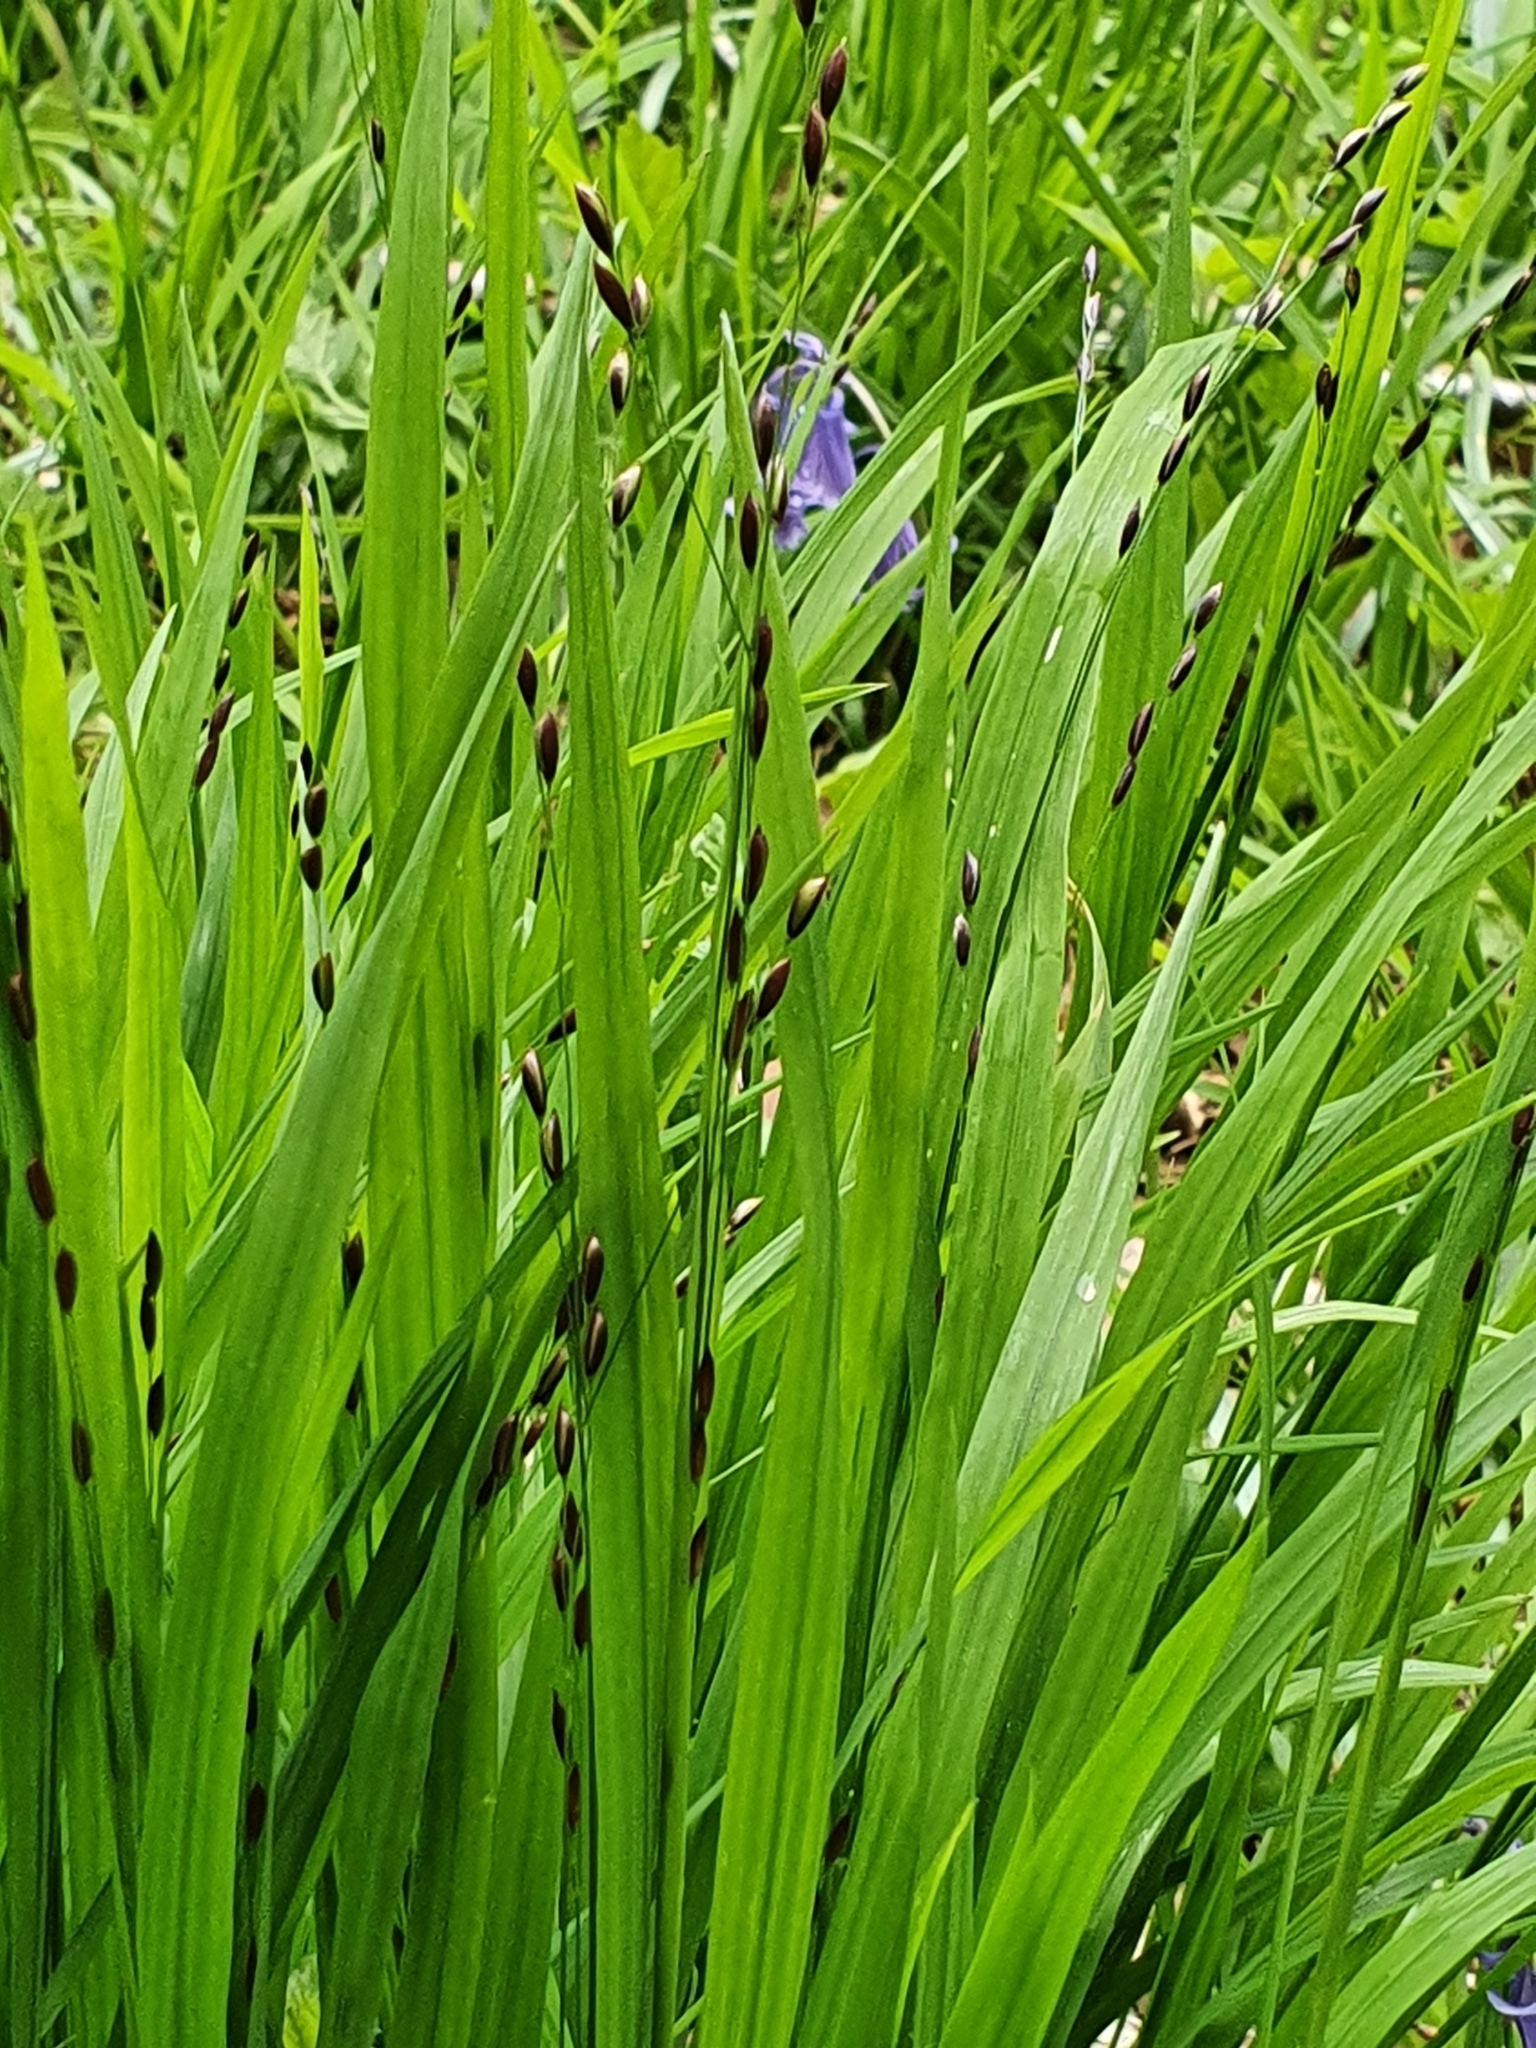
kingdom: Plantae
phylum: Tracheophyta
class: Liliopsida
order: Poales
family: Poaceae
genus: Melica
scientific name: Melica uniflora
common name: Wood melick
